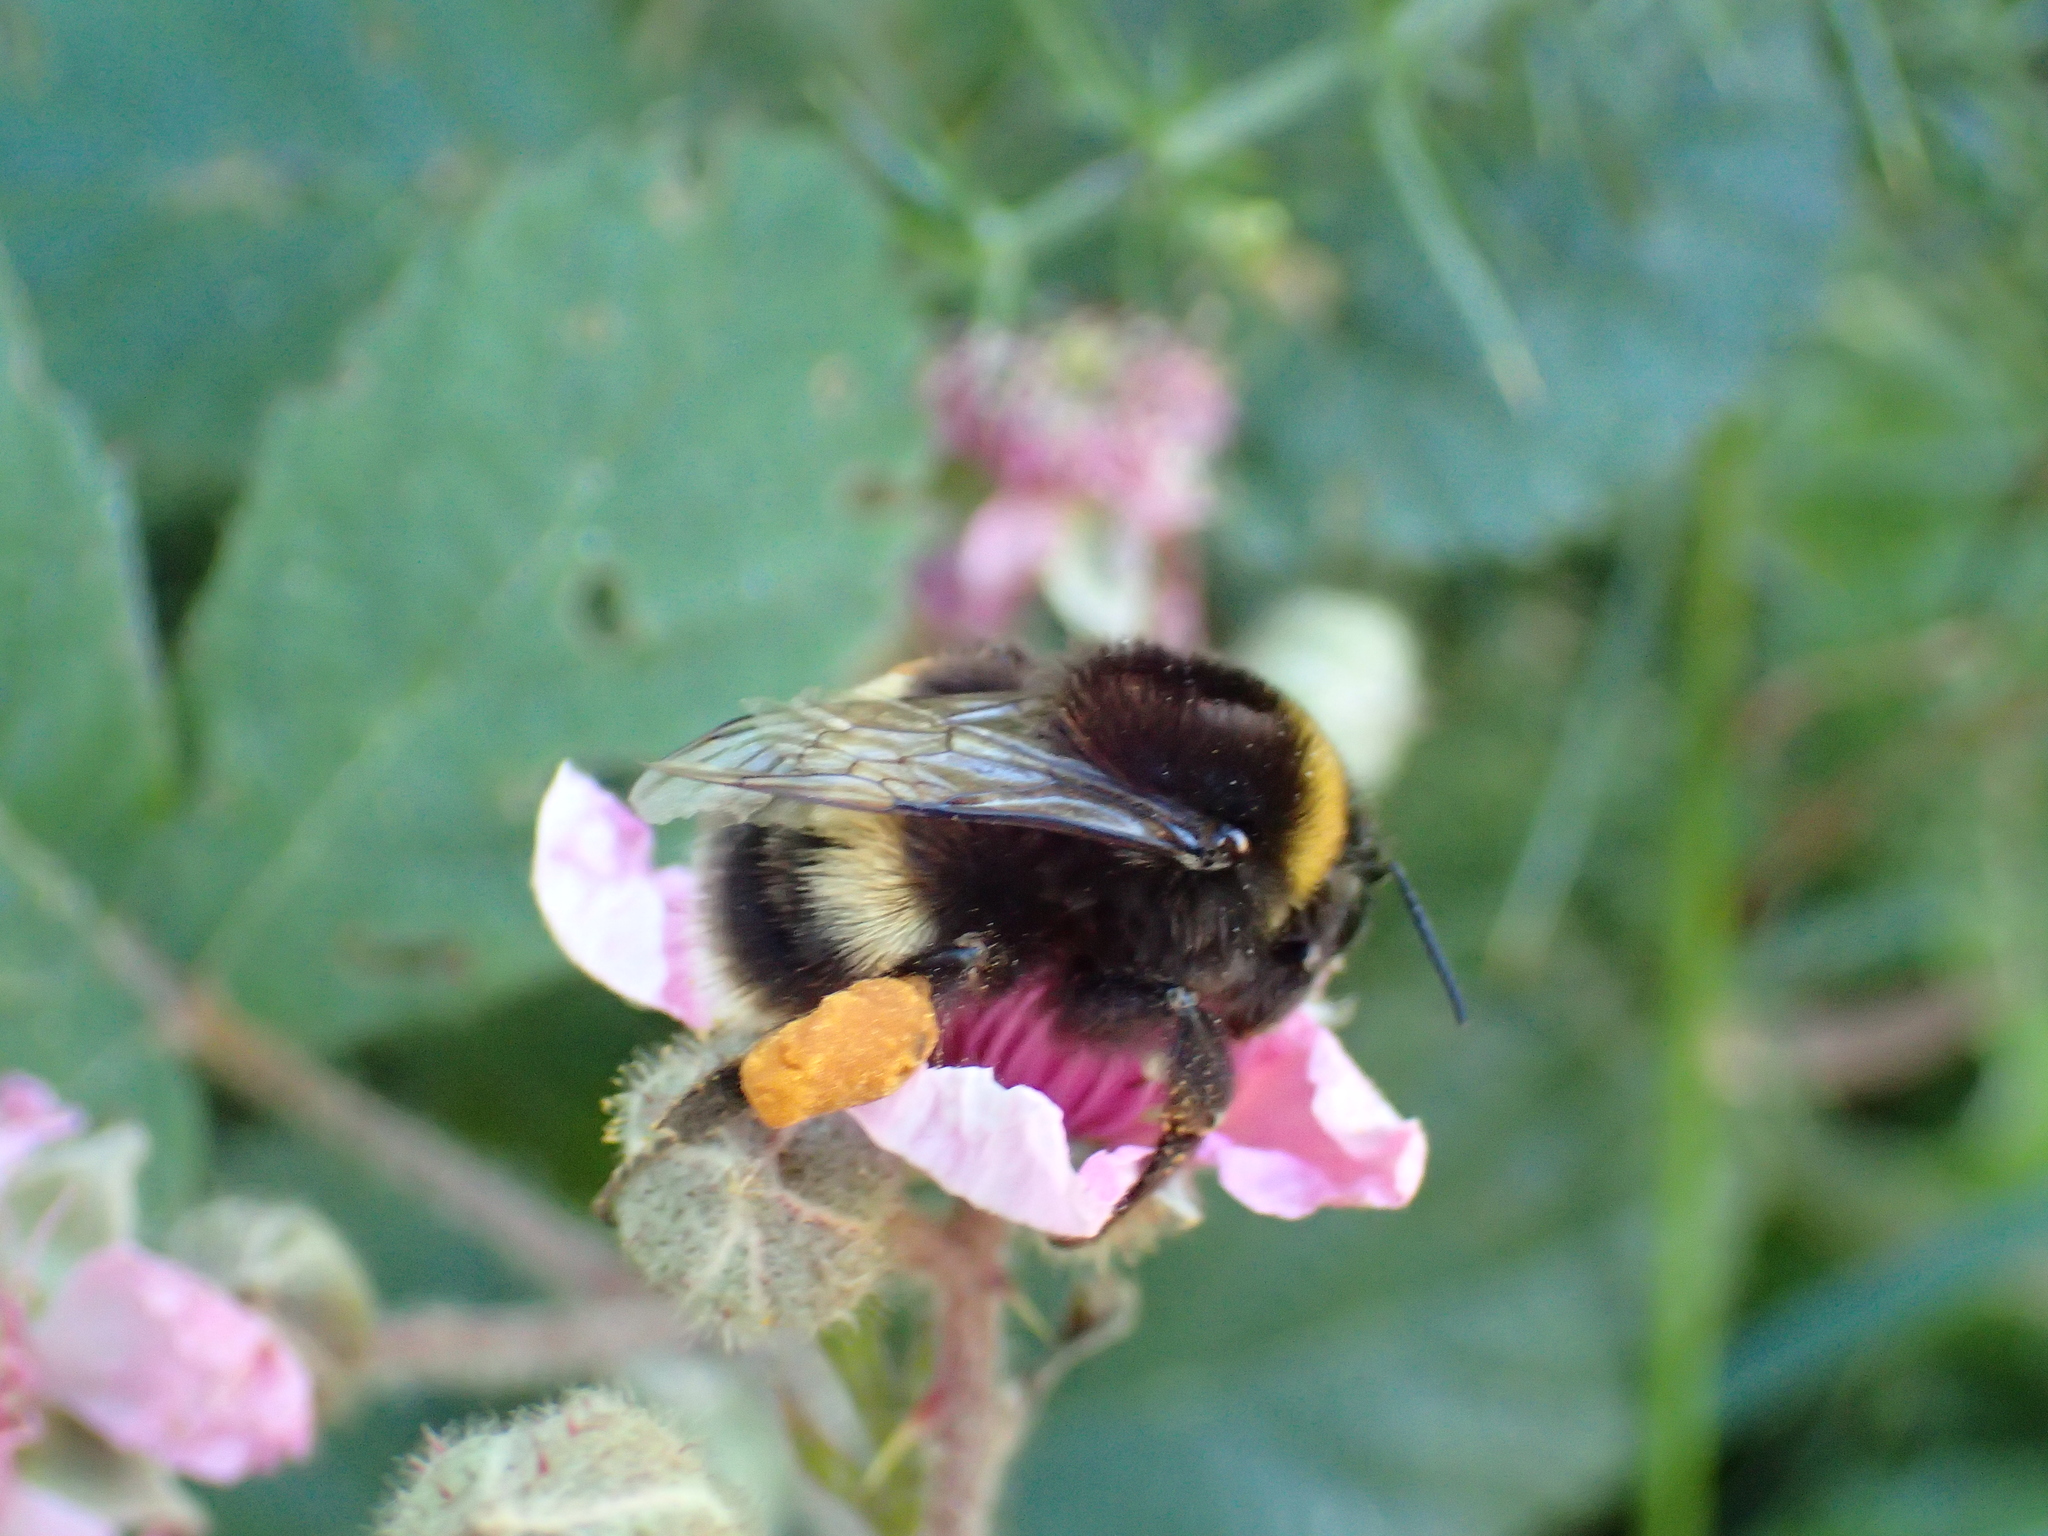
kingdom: Animalia
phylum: Arthropoda
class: Insecta
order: Hymenoptera
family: Apidae
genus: Bombus
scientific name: Bombus terrestris
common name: Buff-tailed bumblebee
